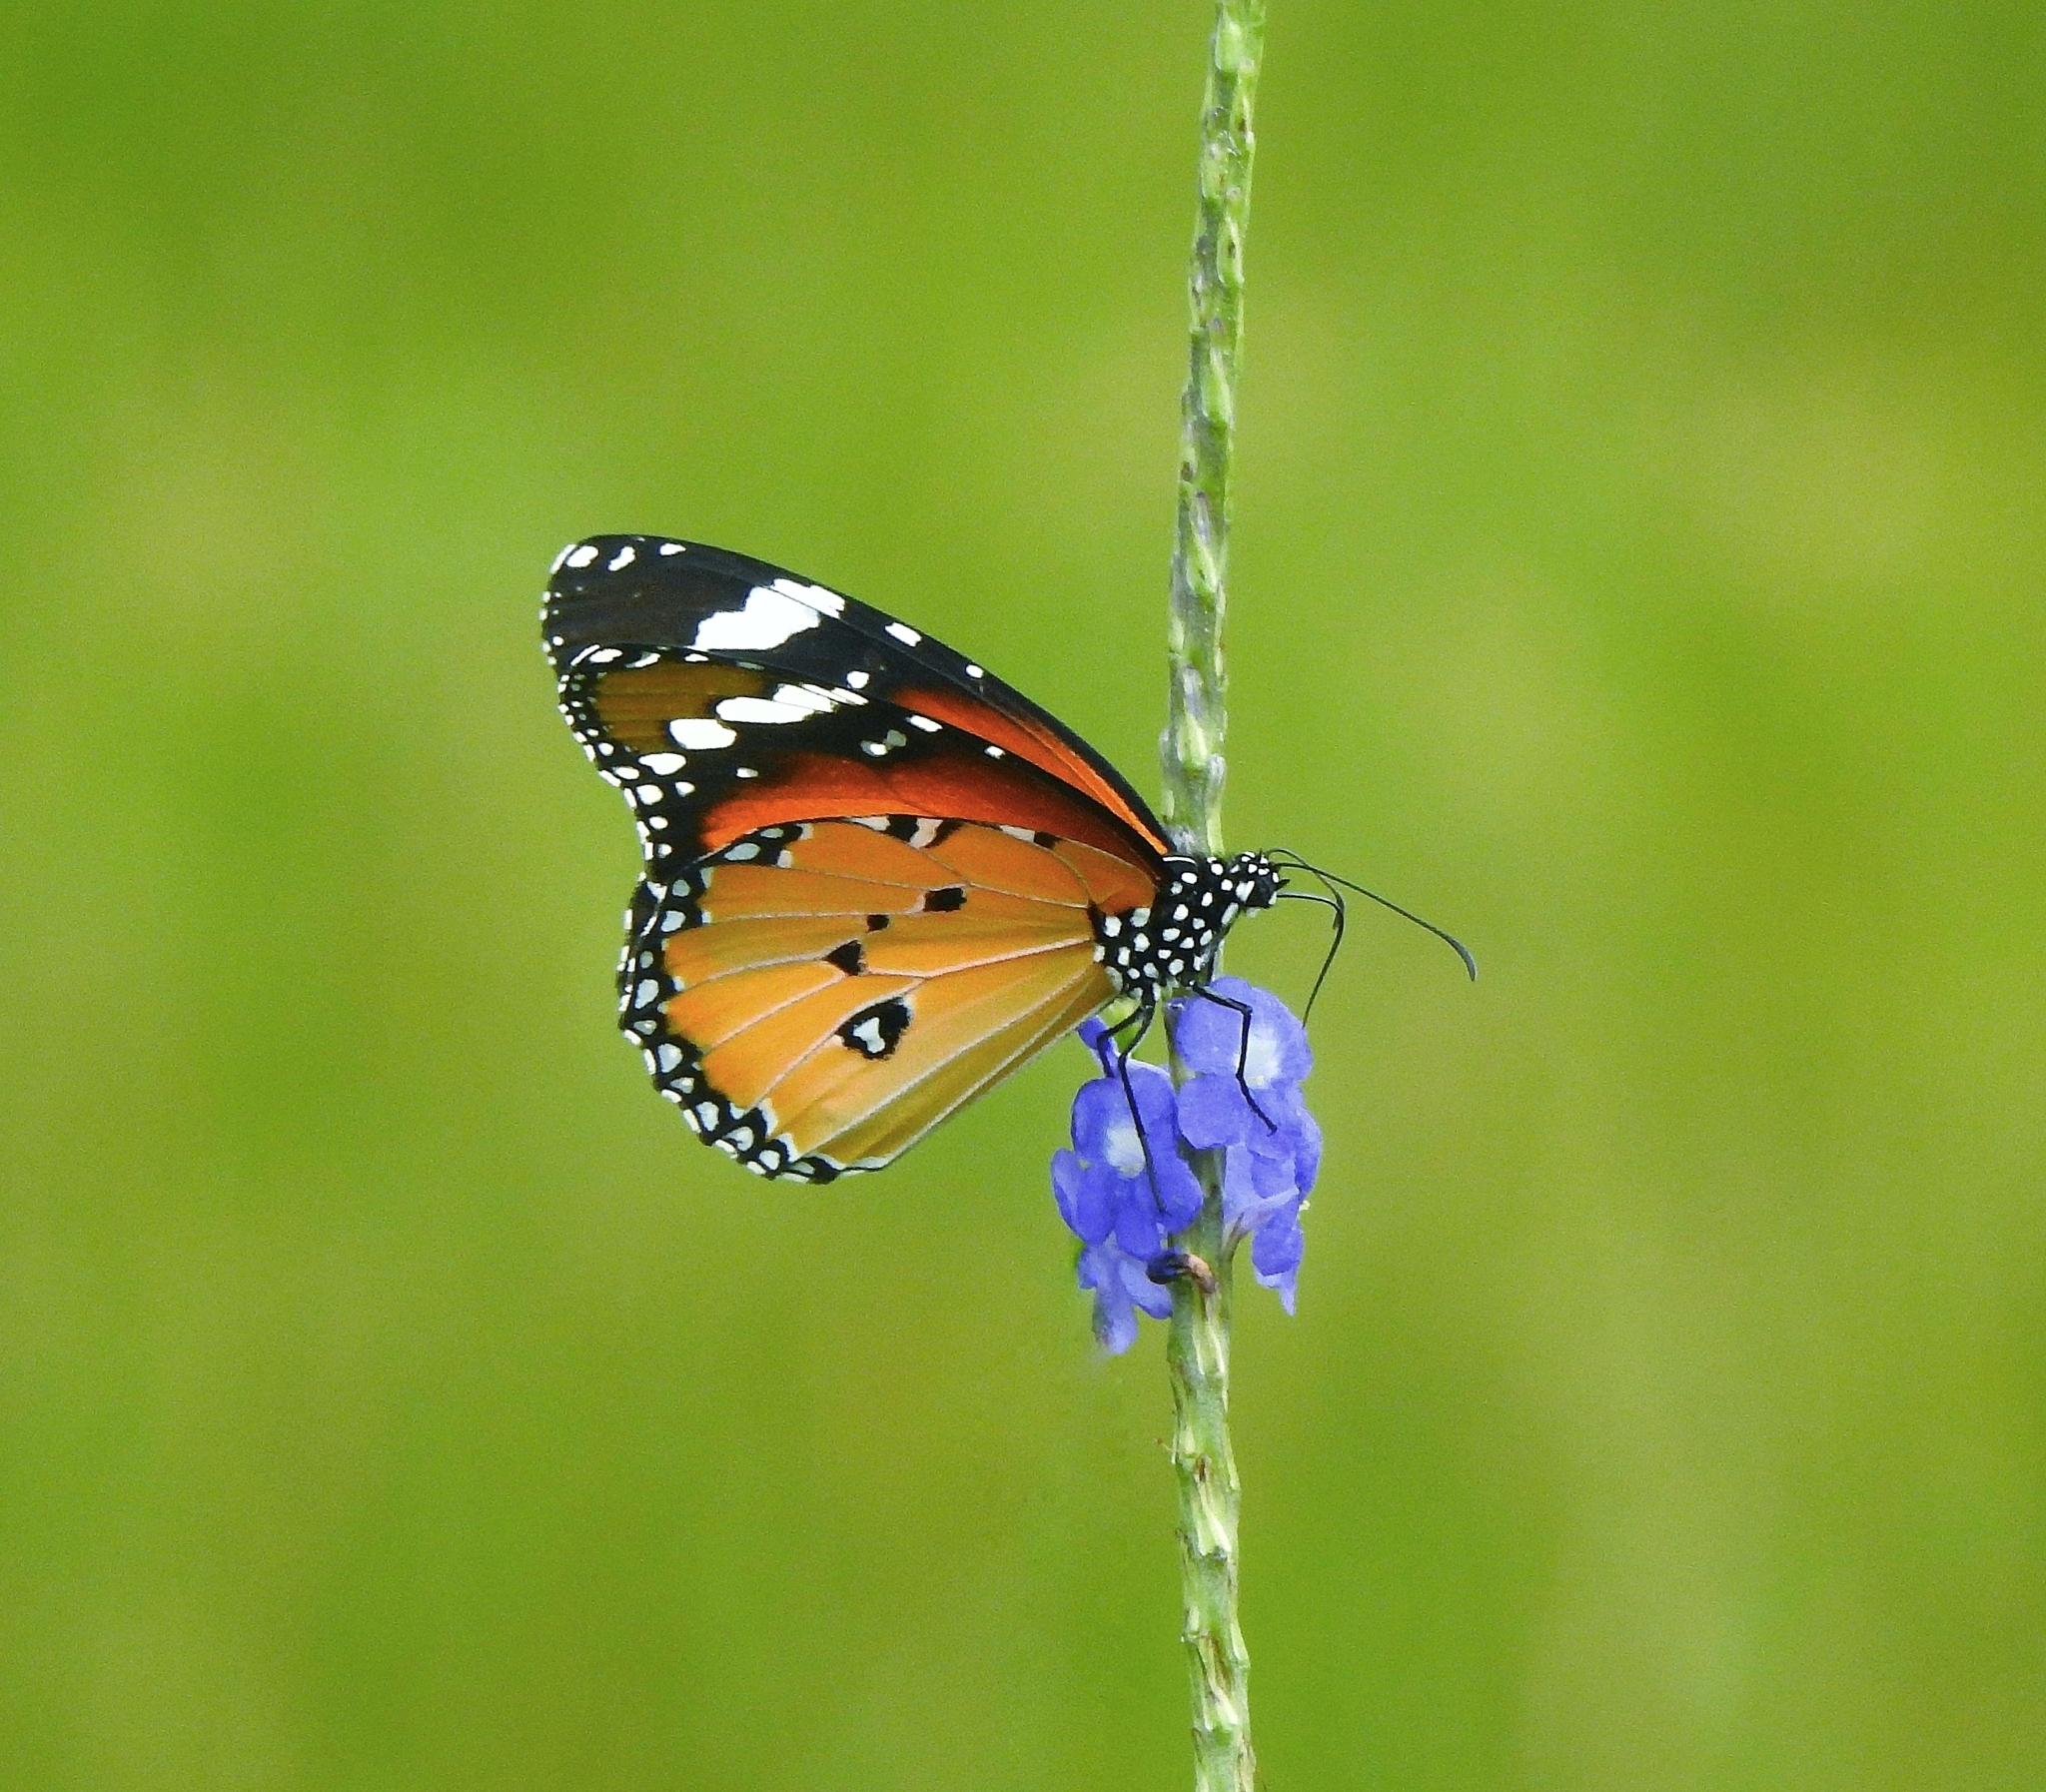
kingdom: Animalia
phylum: Arthropoda
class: Insecta
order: Lepidoptera
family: Nymphalidae
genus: Danaus
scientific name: Danaus chrysippus
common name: Plain tiger
